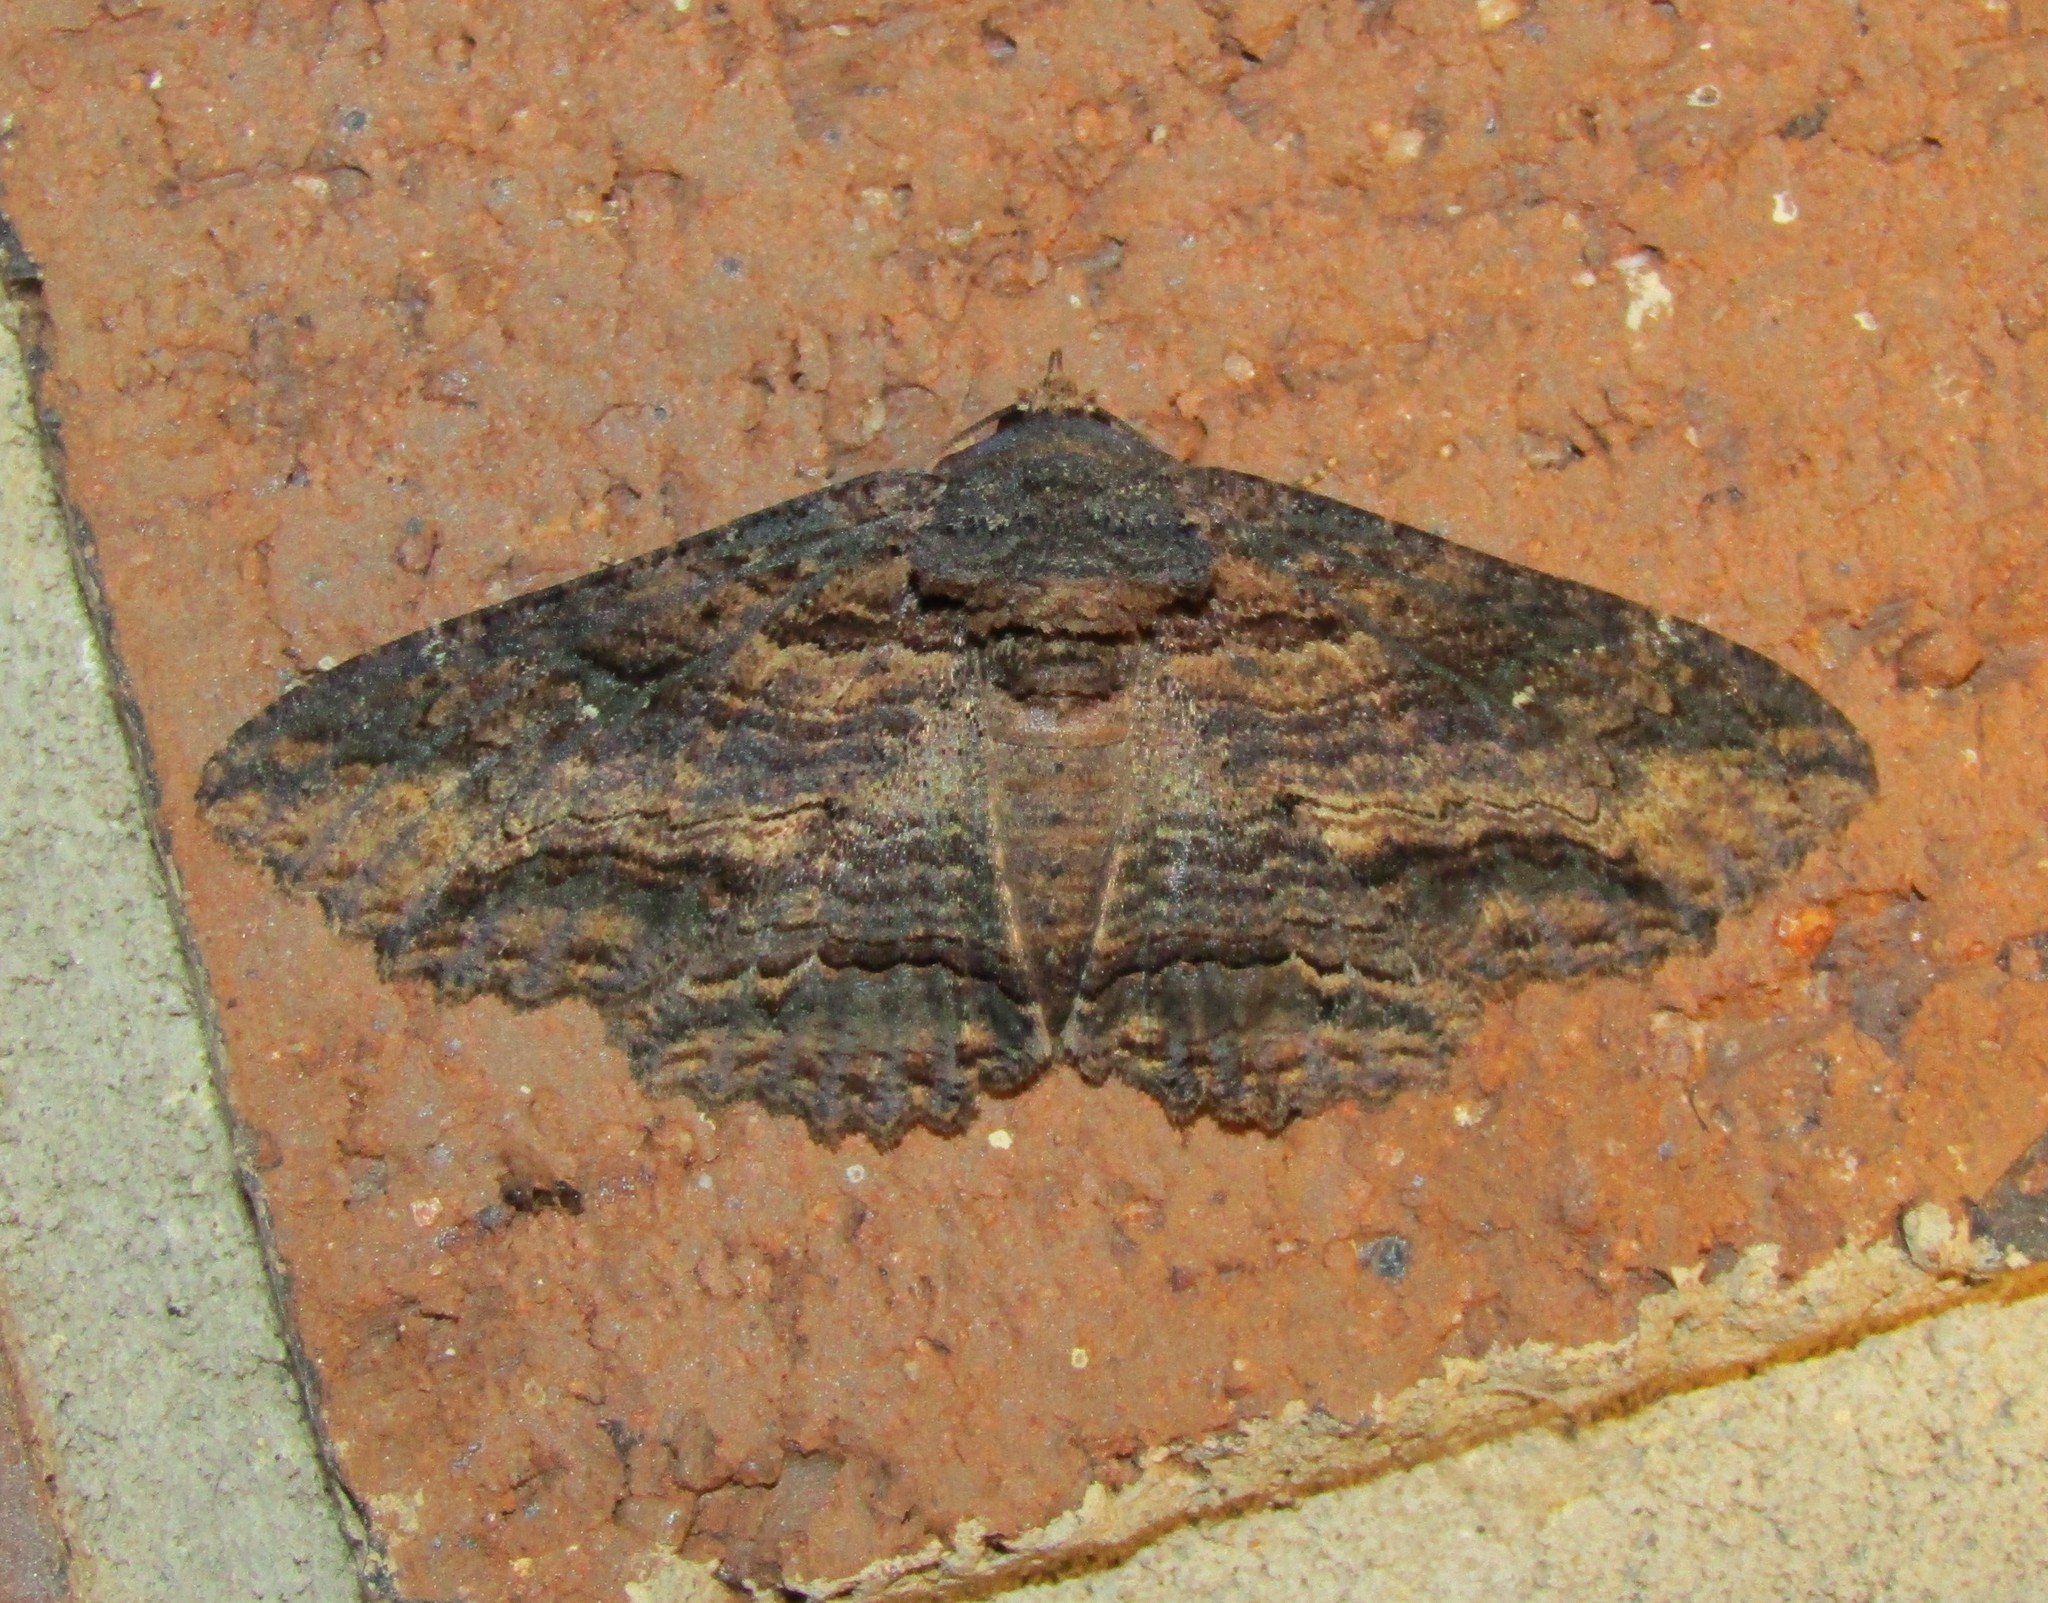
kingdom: Animalia
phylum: Arthropoda
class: Insecta
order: Lepidoptera
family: Erebidae
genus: Zale
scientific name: Zale lunata
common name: Lunate zale moth
